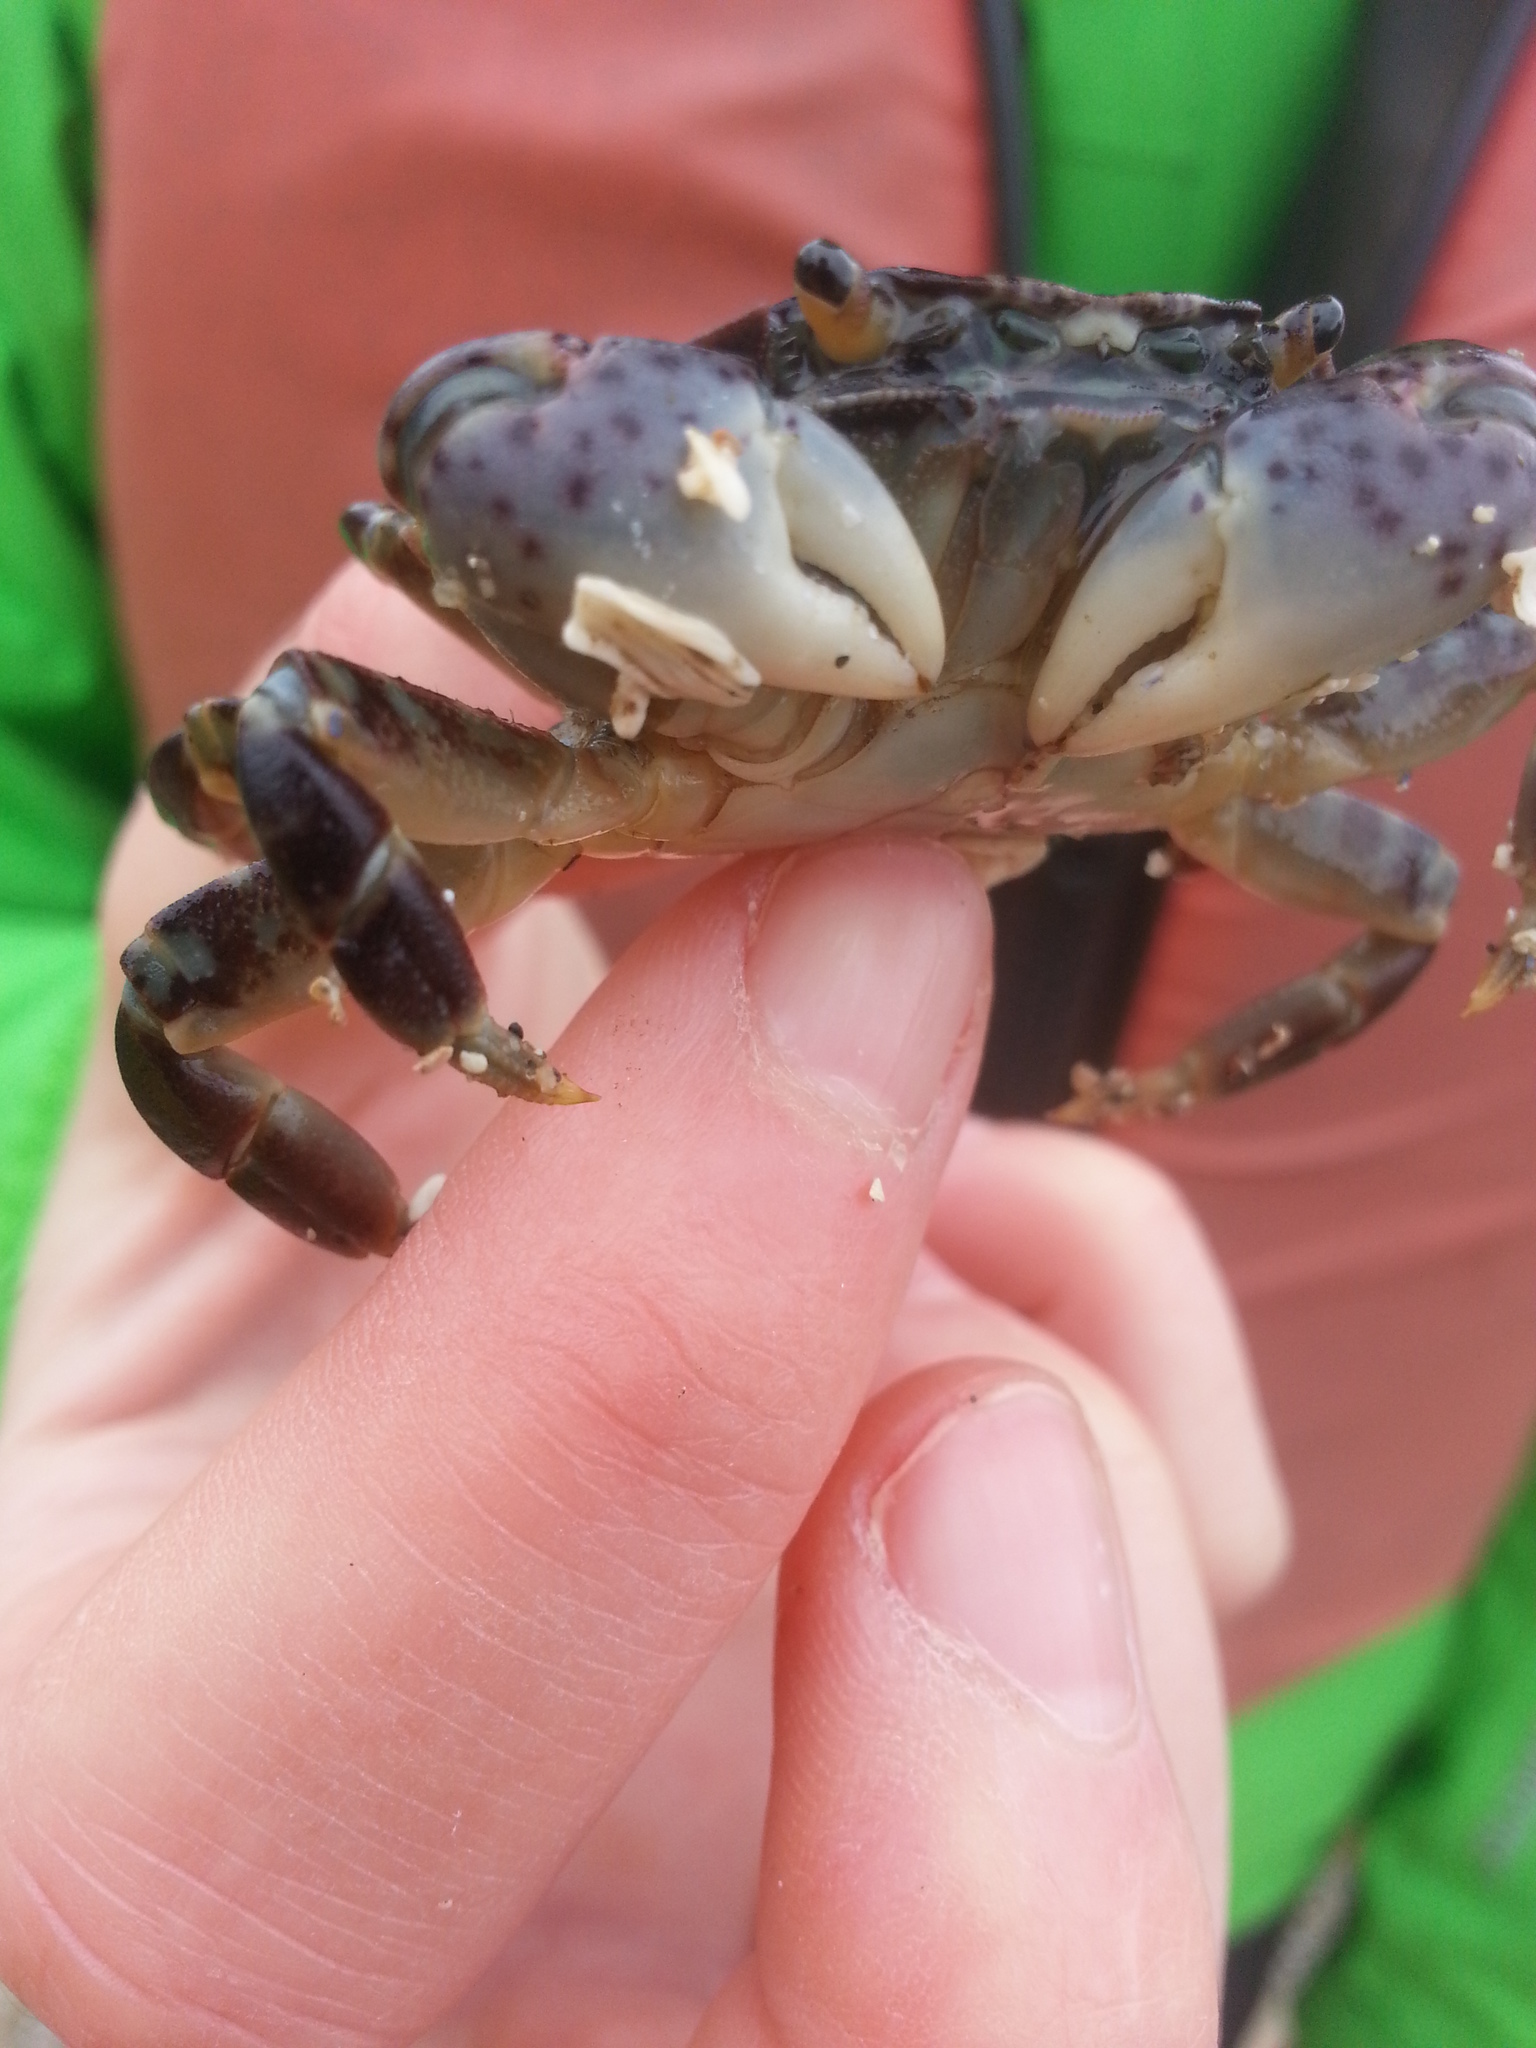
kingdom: Animalia
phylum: Arthropoda
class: Malacostraca
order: Decapoda
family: Varunidae
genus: Hemigrapsus
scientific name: Hemigrapsus nudus
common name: Purple shore crab
